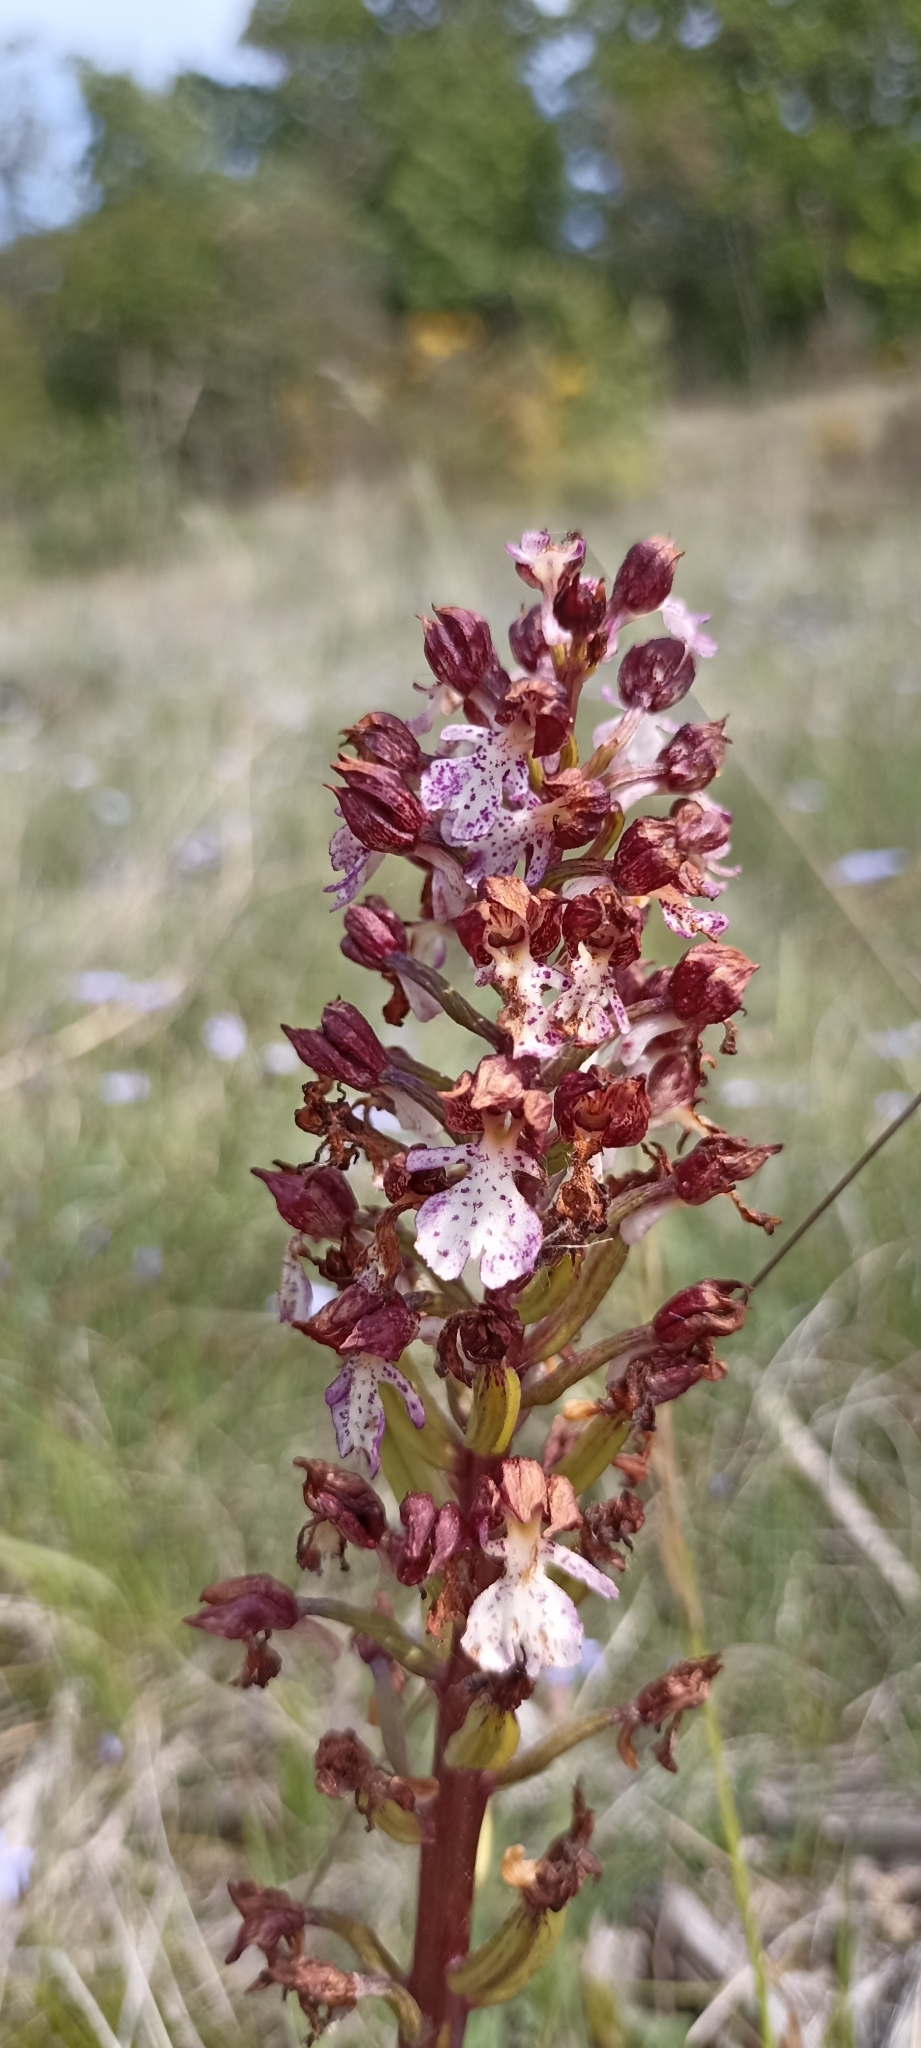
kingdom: Plantae
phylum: Tracheophyta
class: Liliopsida
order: Asparagales
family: Orchidaceae
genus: Orchis
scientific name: Orchis purpurea
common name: Lady orchid
